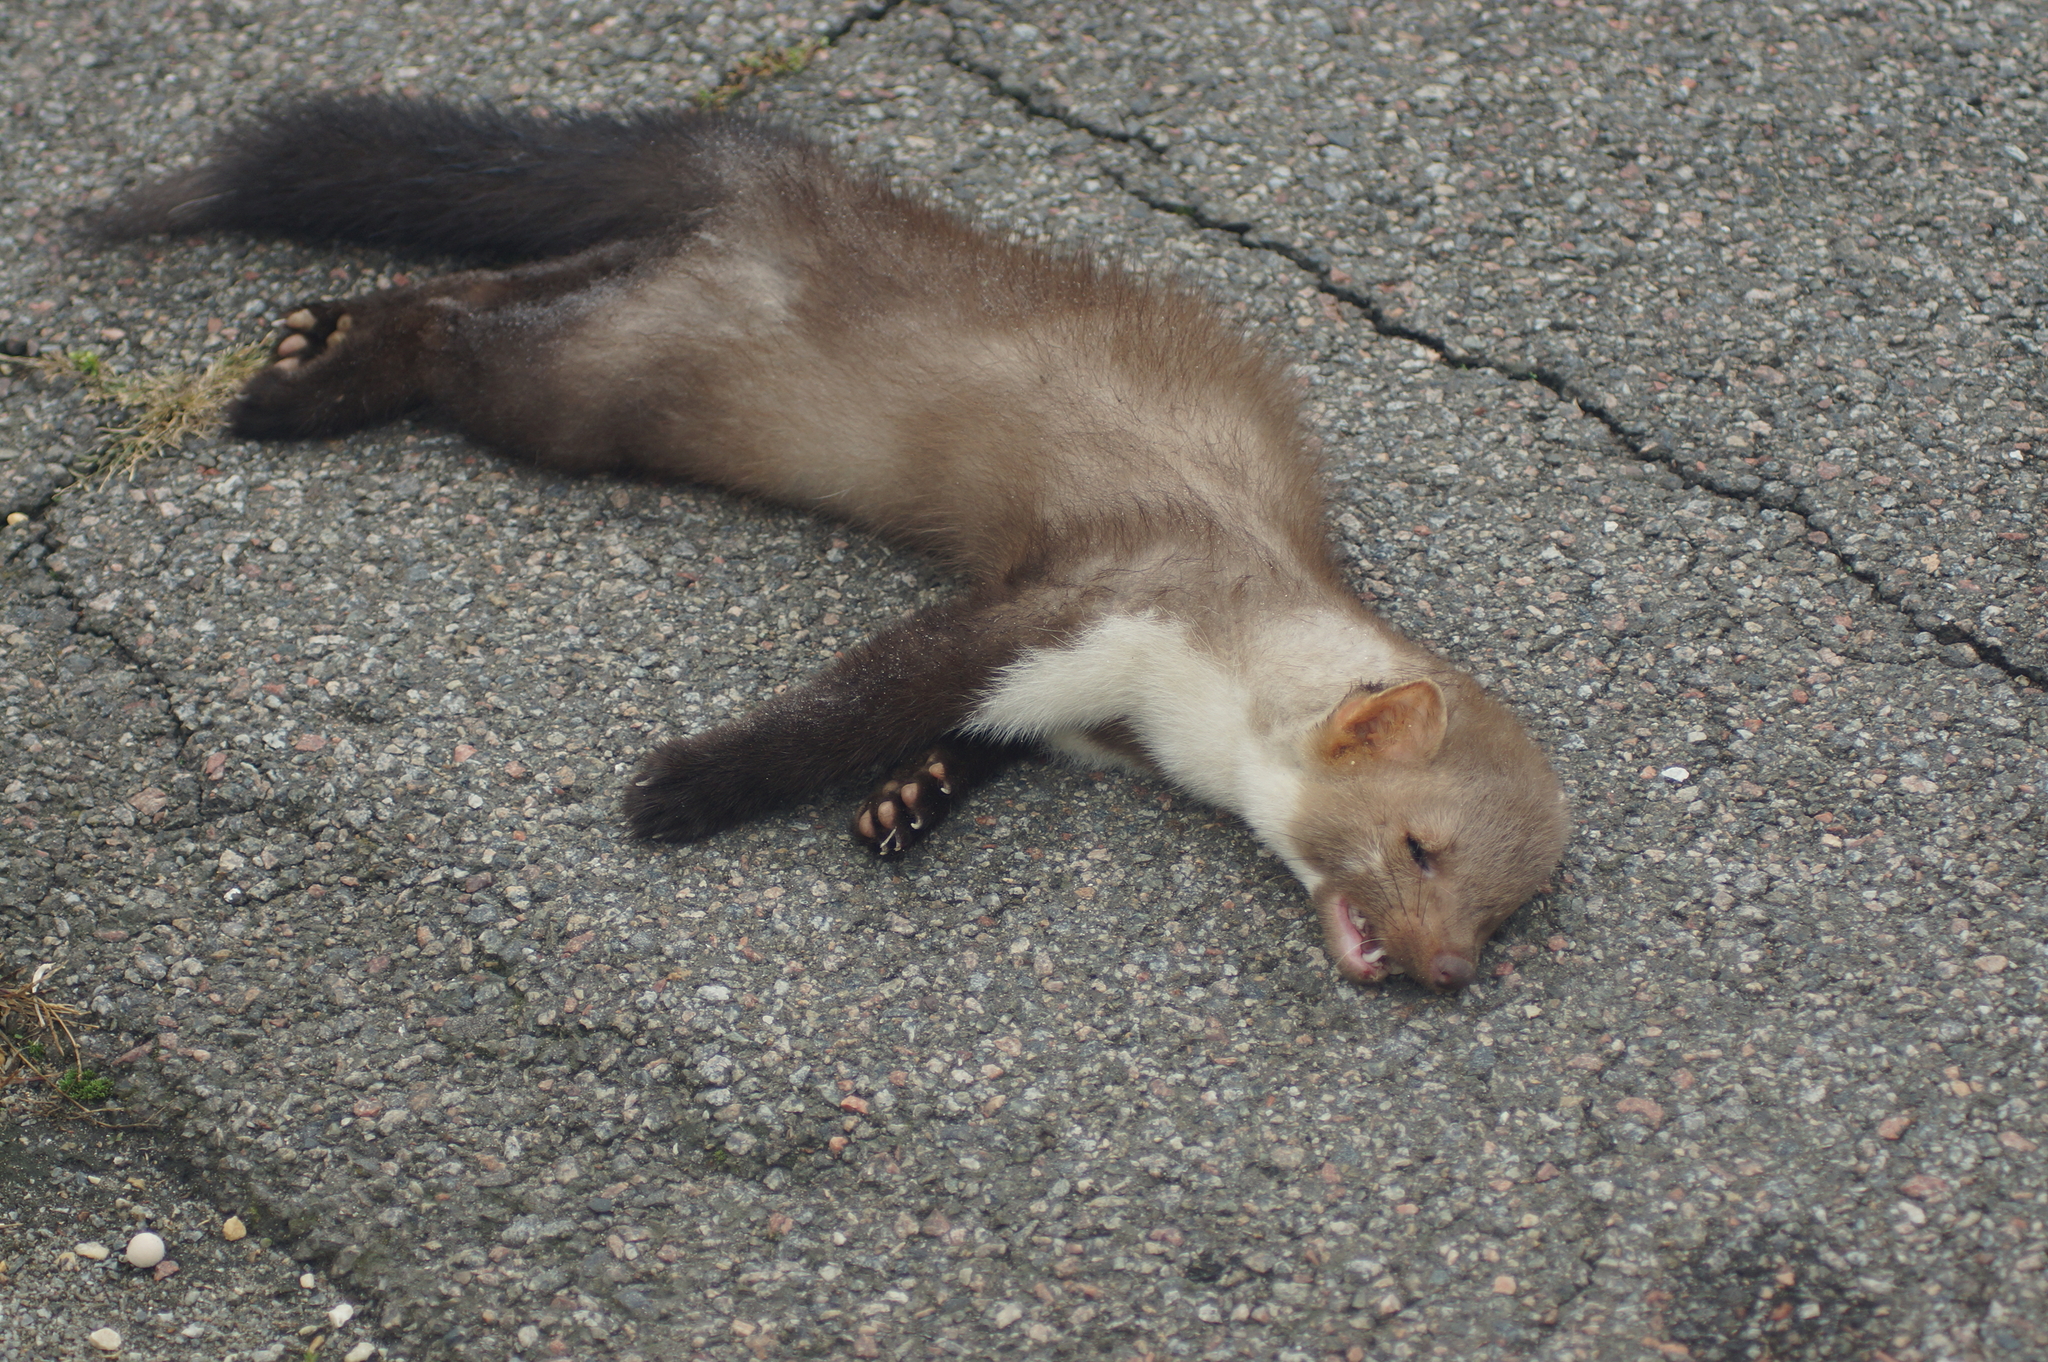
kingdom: Animalia
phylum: Chordata
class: Mammalia
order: Carnivora
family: Mustelidae
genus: Martes
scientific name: Martes foina
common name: Beech marten
